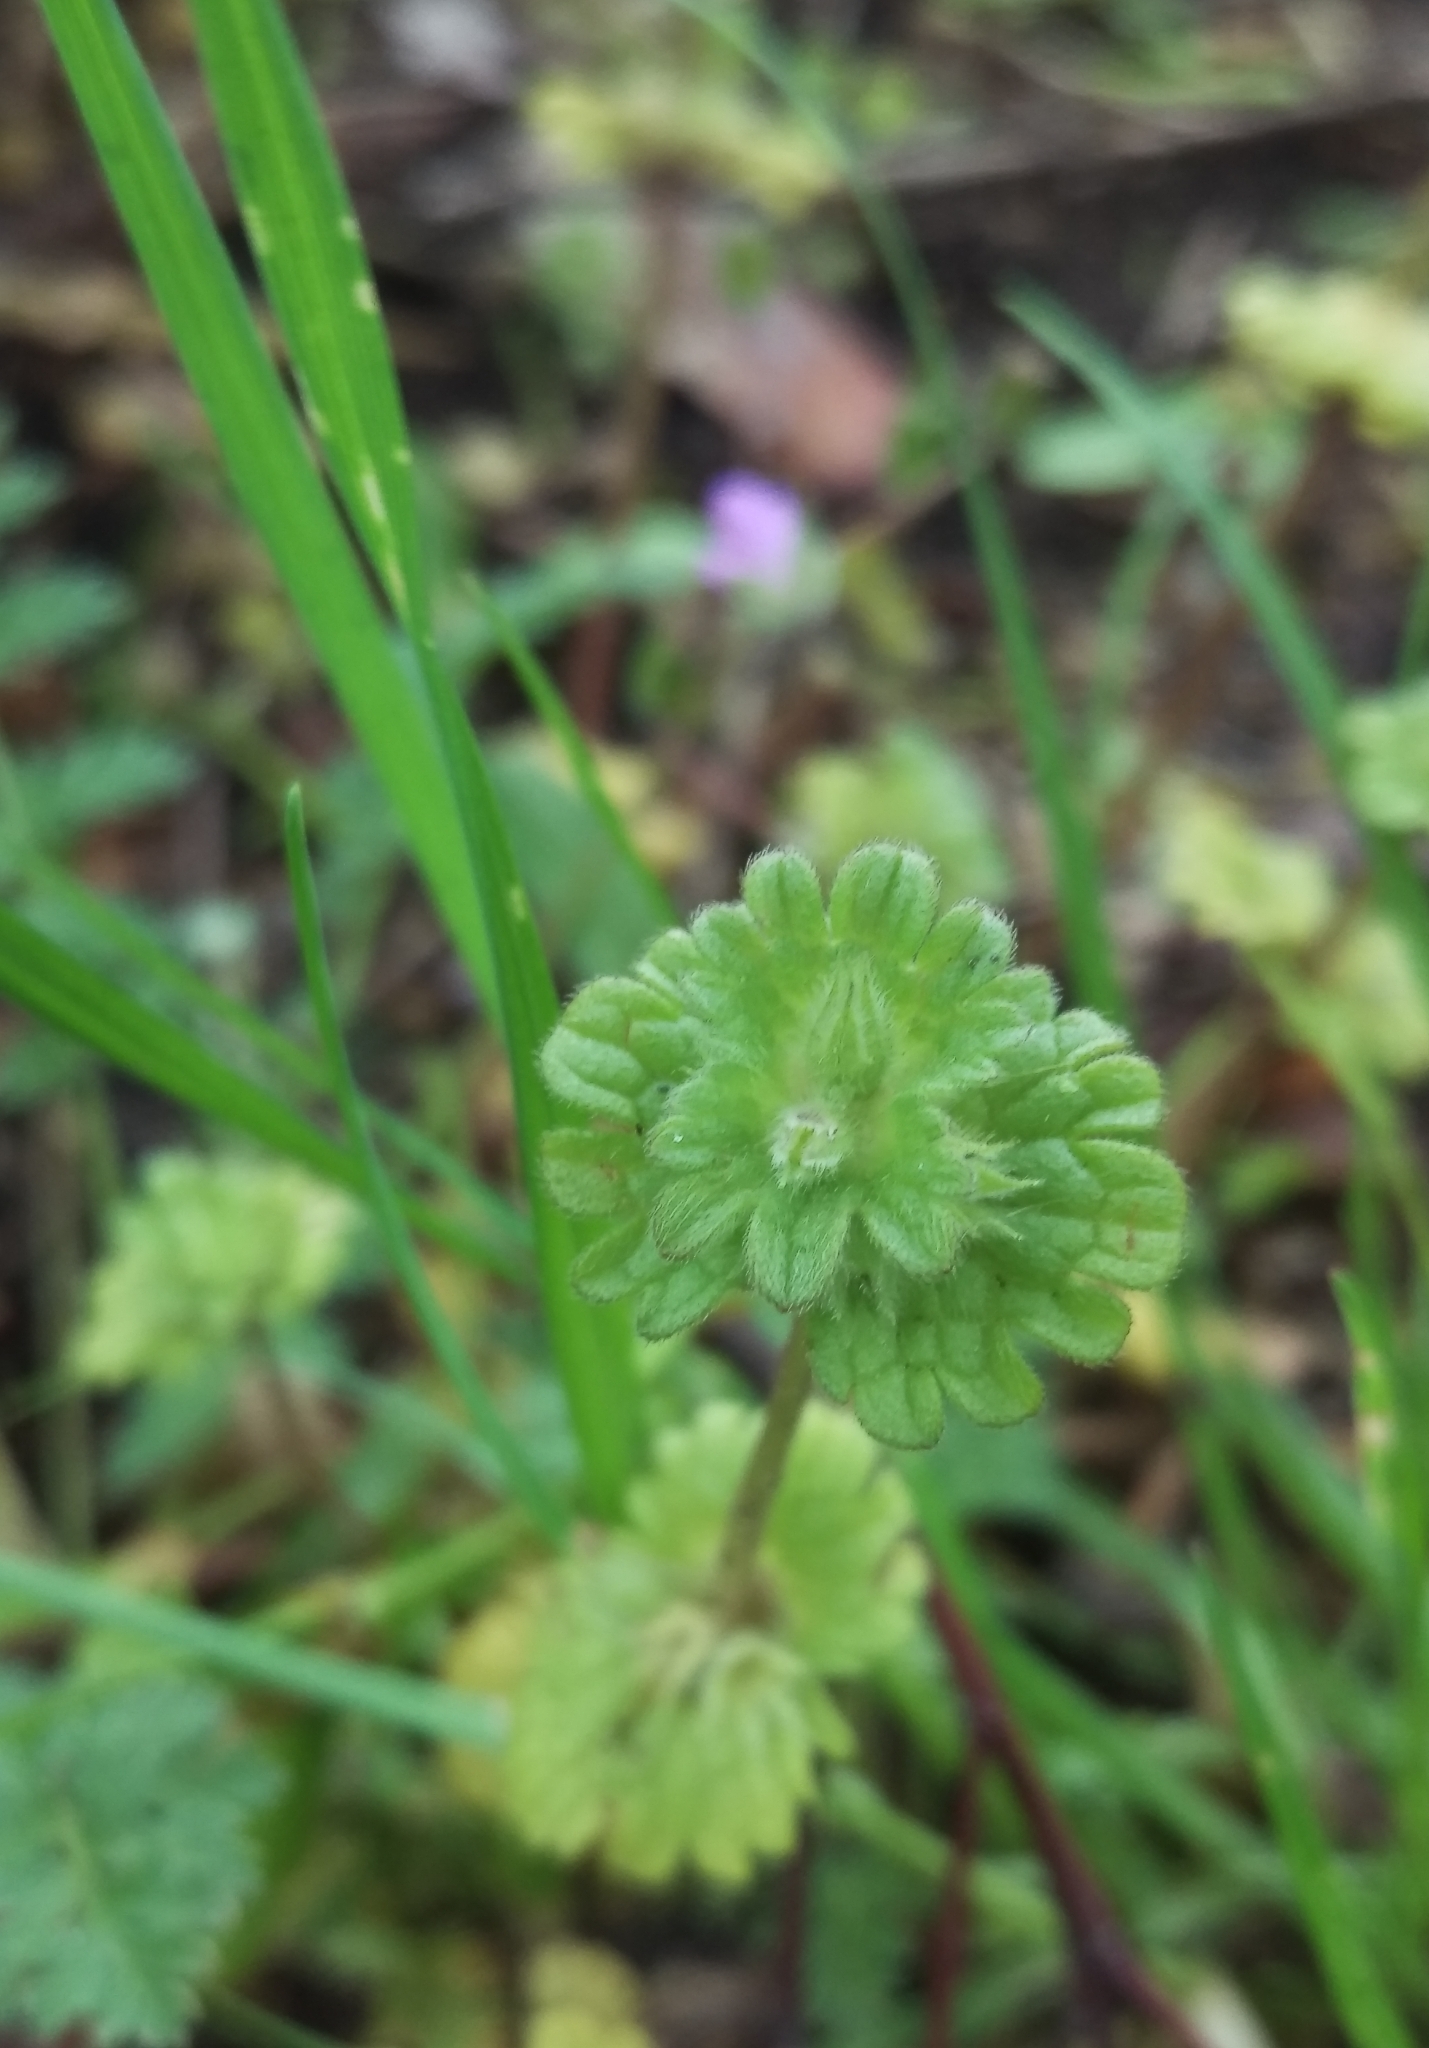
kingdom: Plantae
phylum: Tracheophyta
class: Magnoliopsida
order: Lamiales
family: Lamiaceae
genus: Lamium
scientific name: Lamium amplexicaule
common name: Henbit dead-nettle
